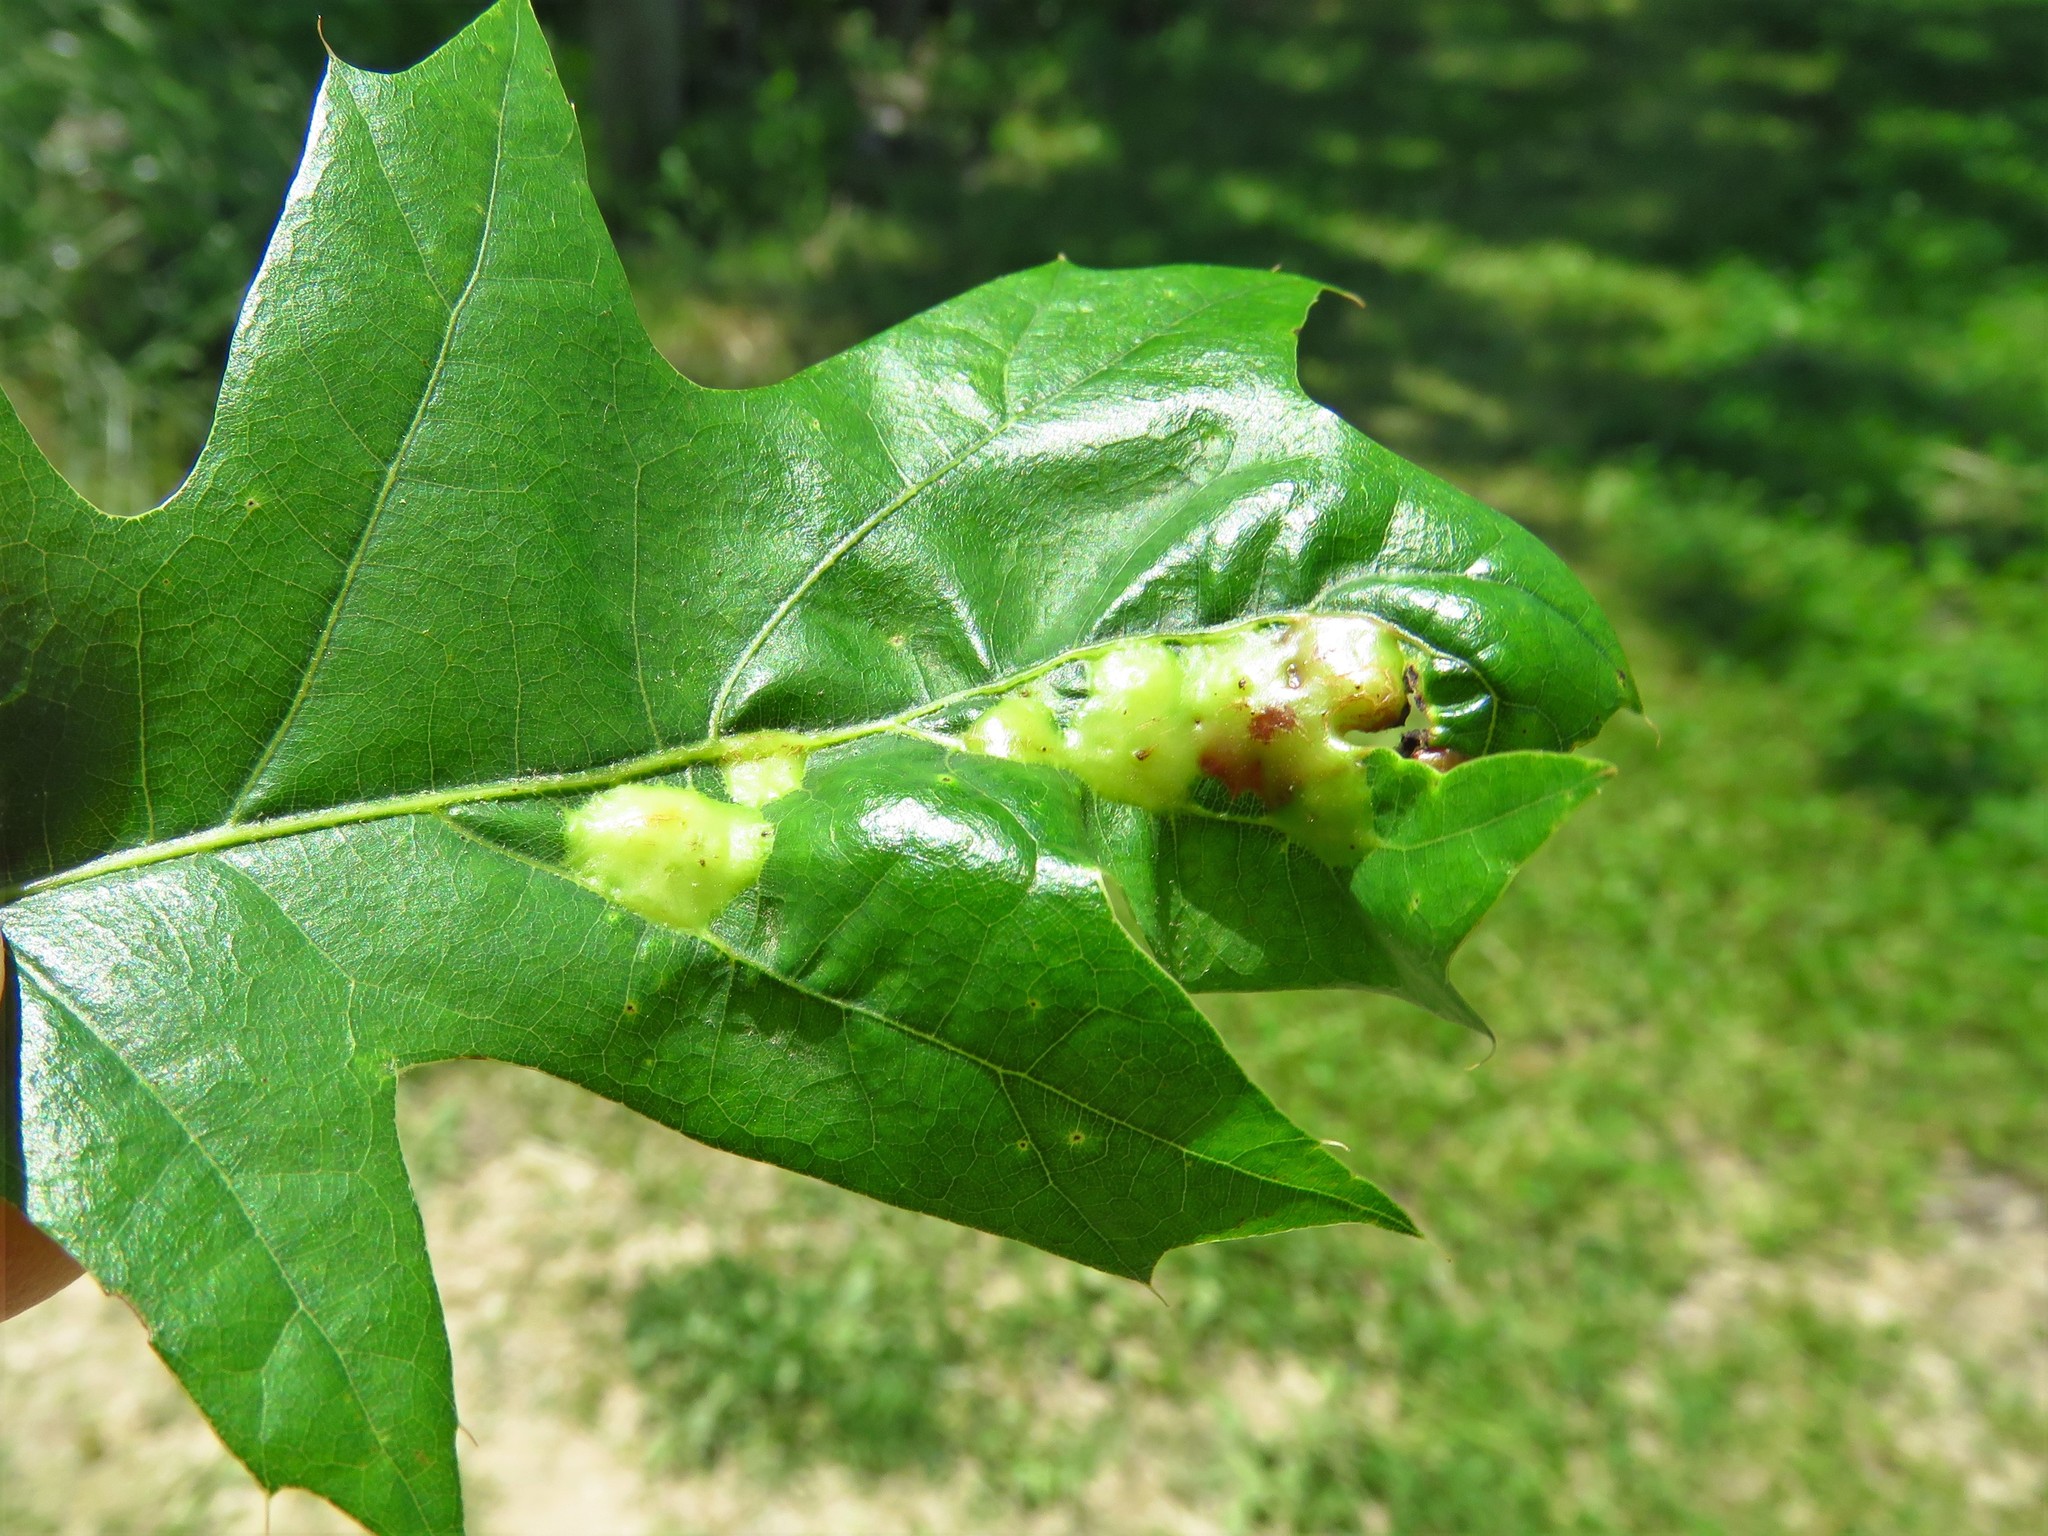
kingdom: Animalia
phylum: Arthropoda
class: Insecta
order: Diptera
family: Cecidomyiidae
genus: Polystepha
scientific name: Polystepha pilulae
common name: Oak leaf gall midge
